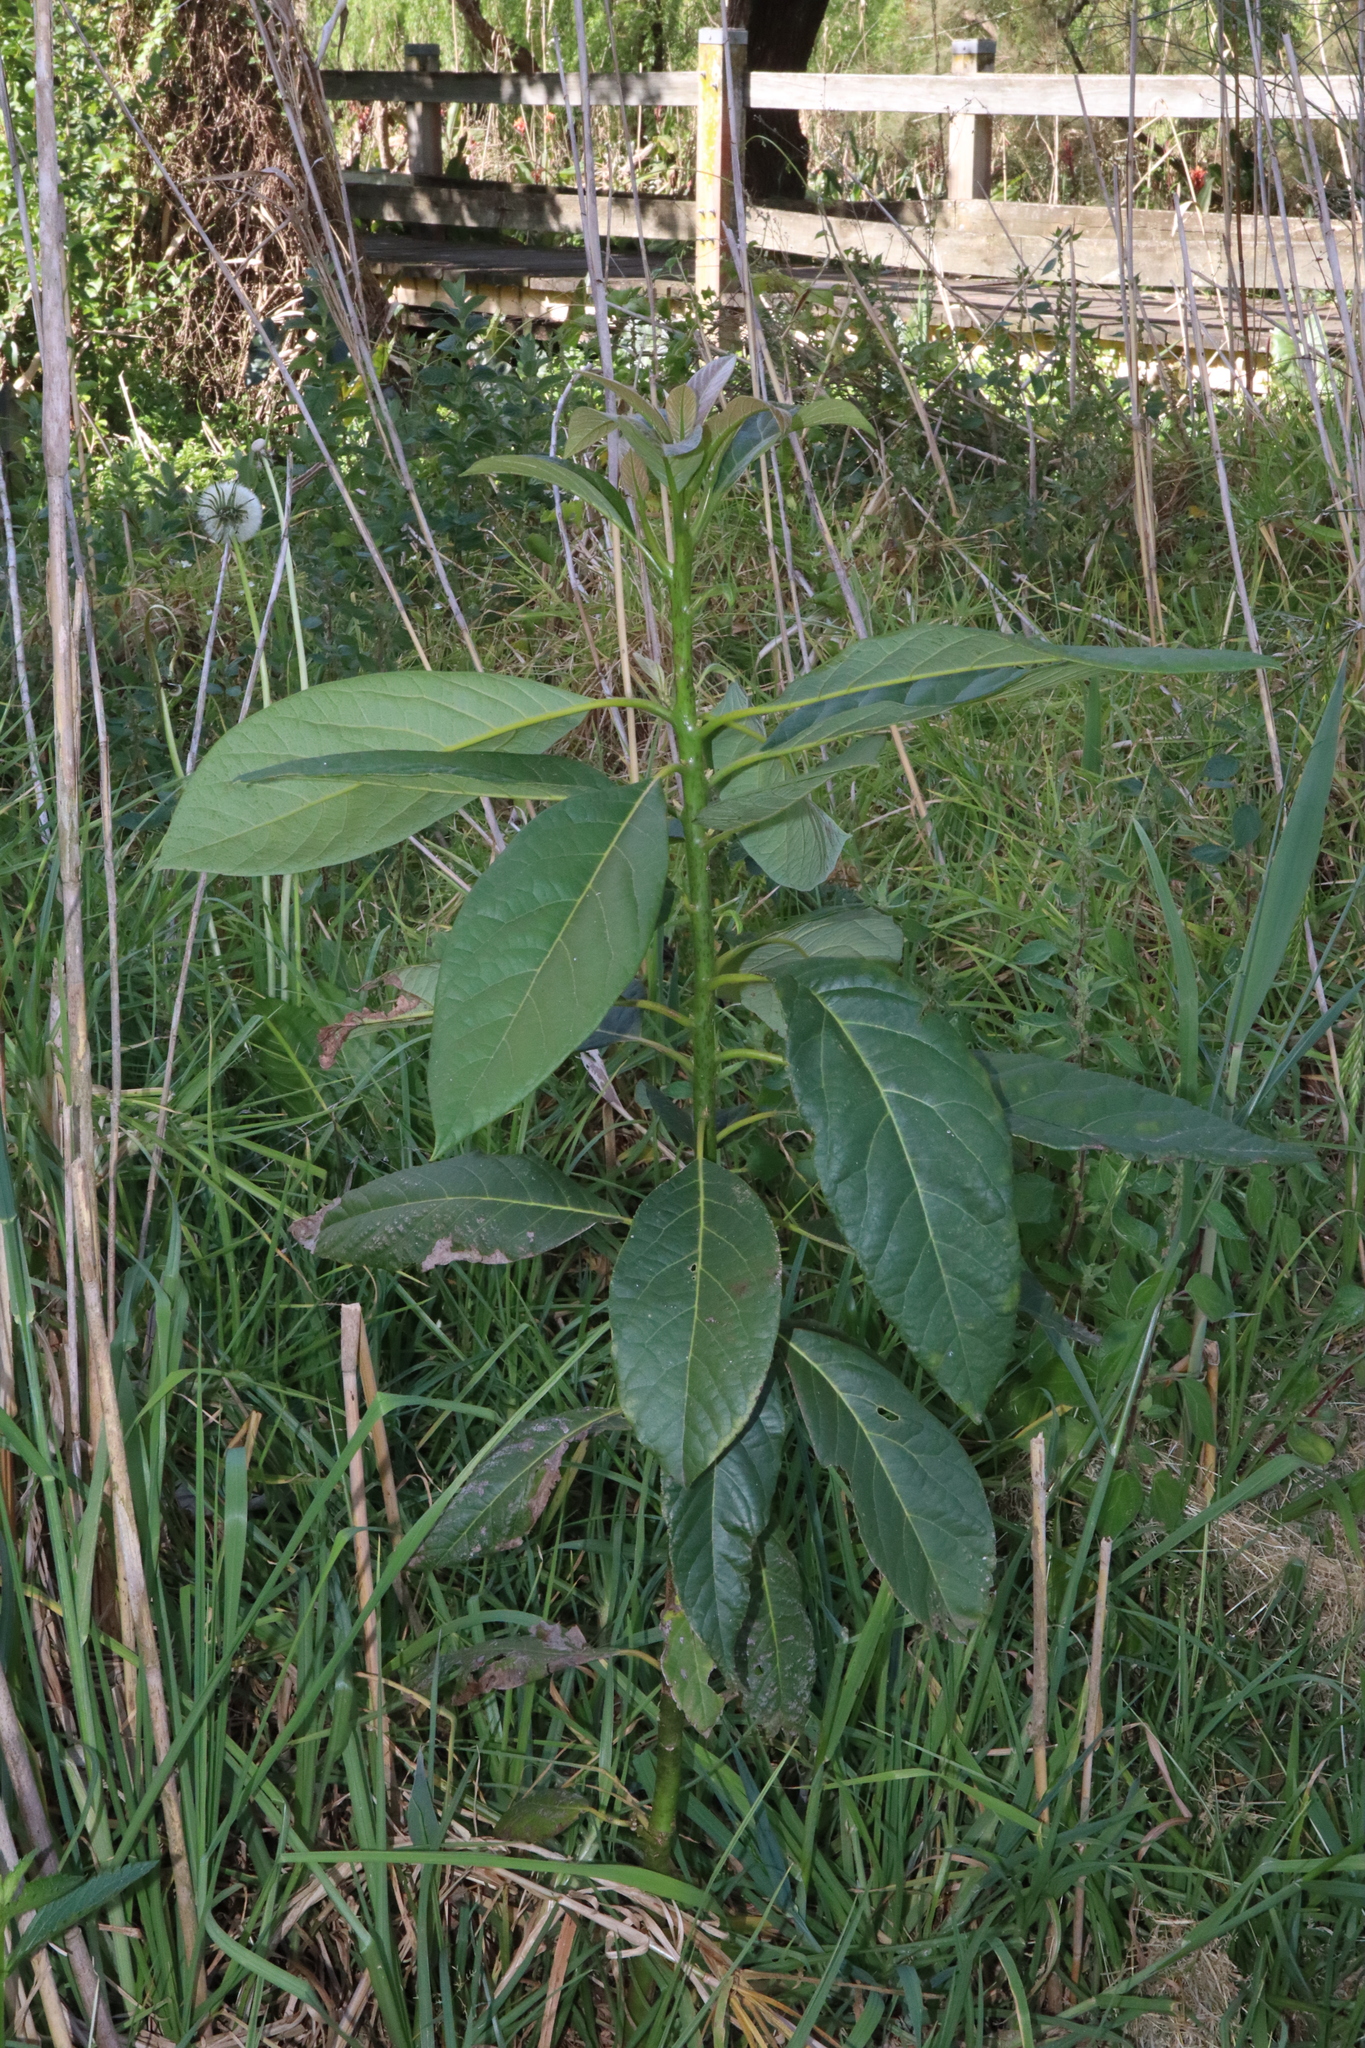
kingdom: Plantae
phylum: Tracheophyta
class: Magnoliopsida
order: Laurales
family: Lauraceae
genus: Persea
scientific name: Persea americana
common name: Avocado
